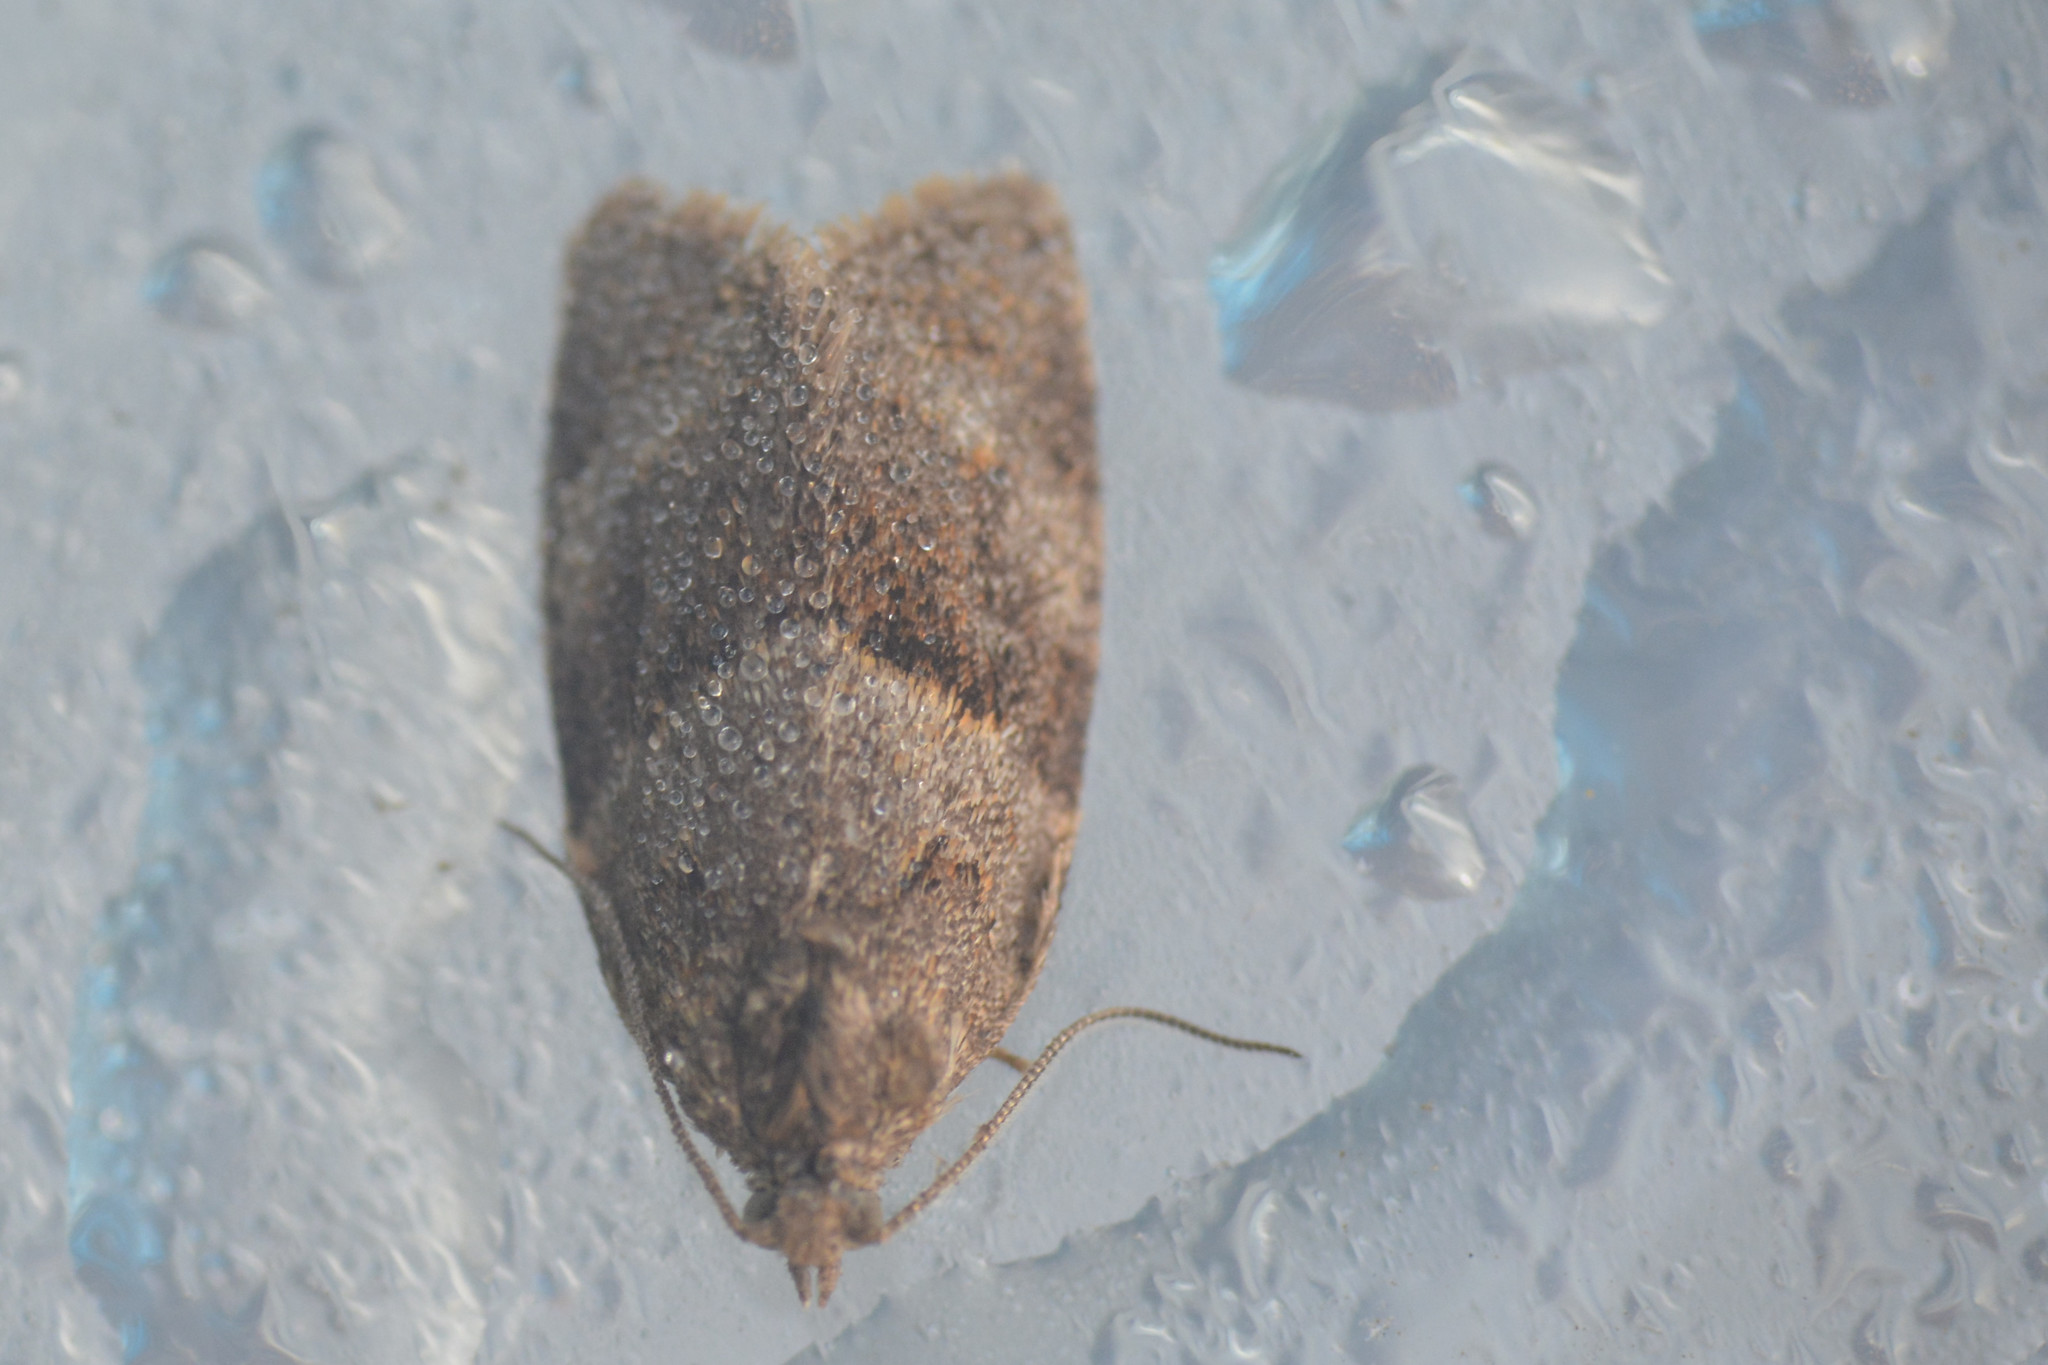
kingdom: Animalia
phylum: Arthropoda
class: Insecta
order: Lepidoptera
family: Tortricidae
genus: Syndemis
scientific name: Syndemis musculana
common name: Dark-barred twist
